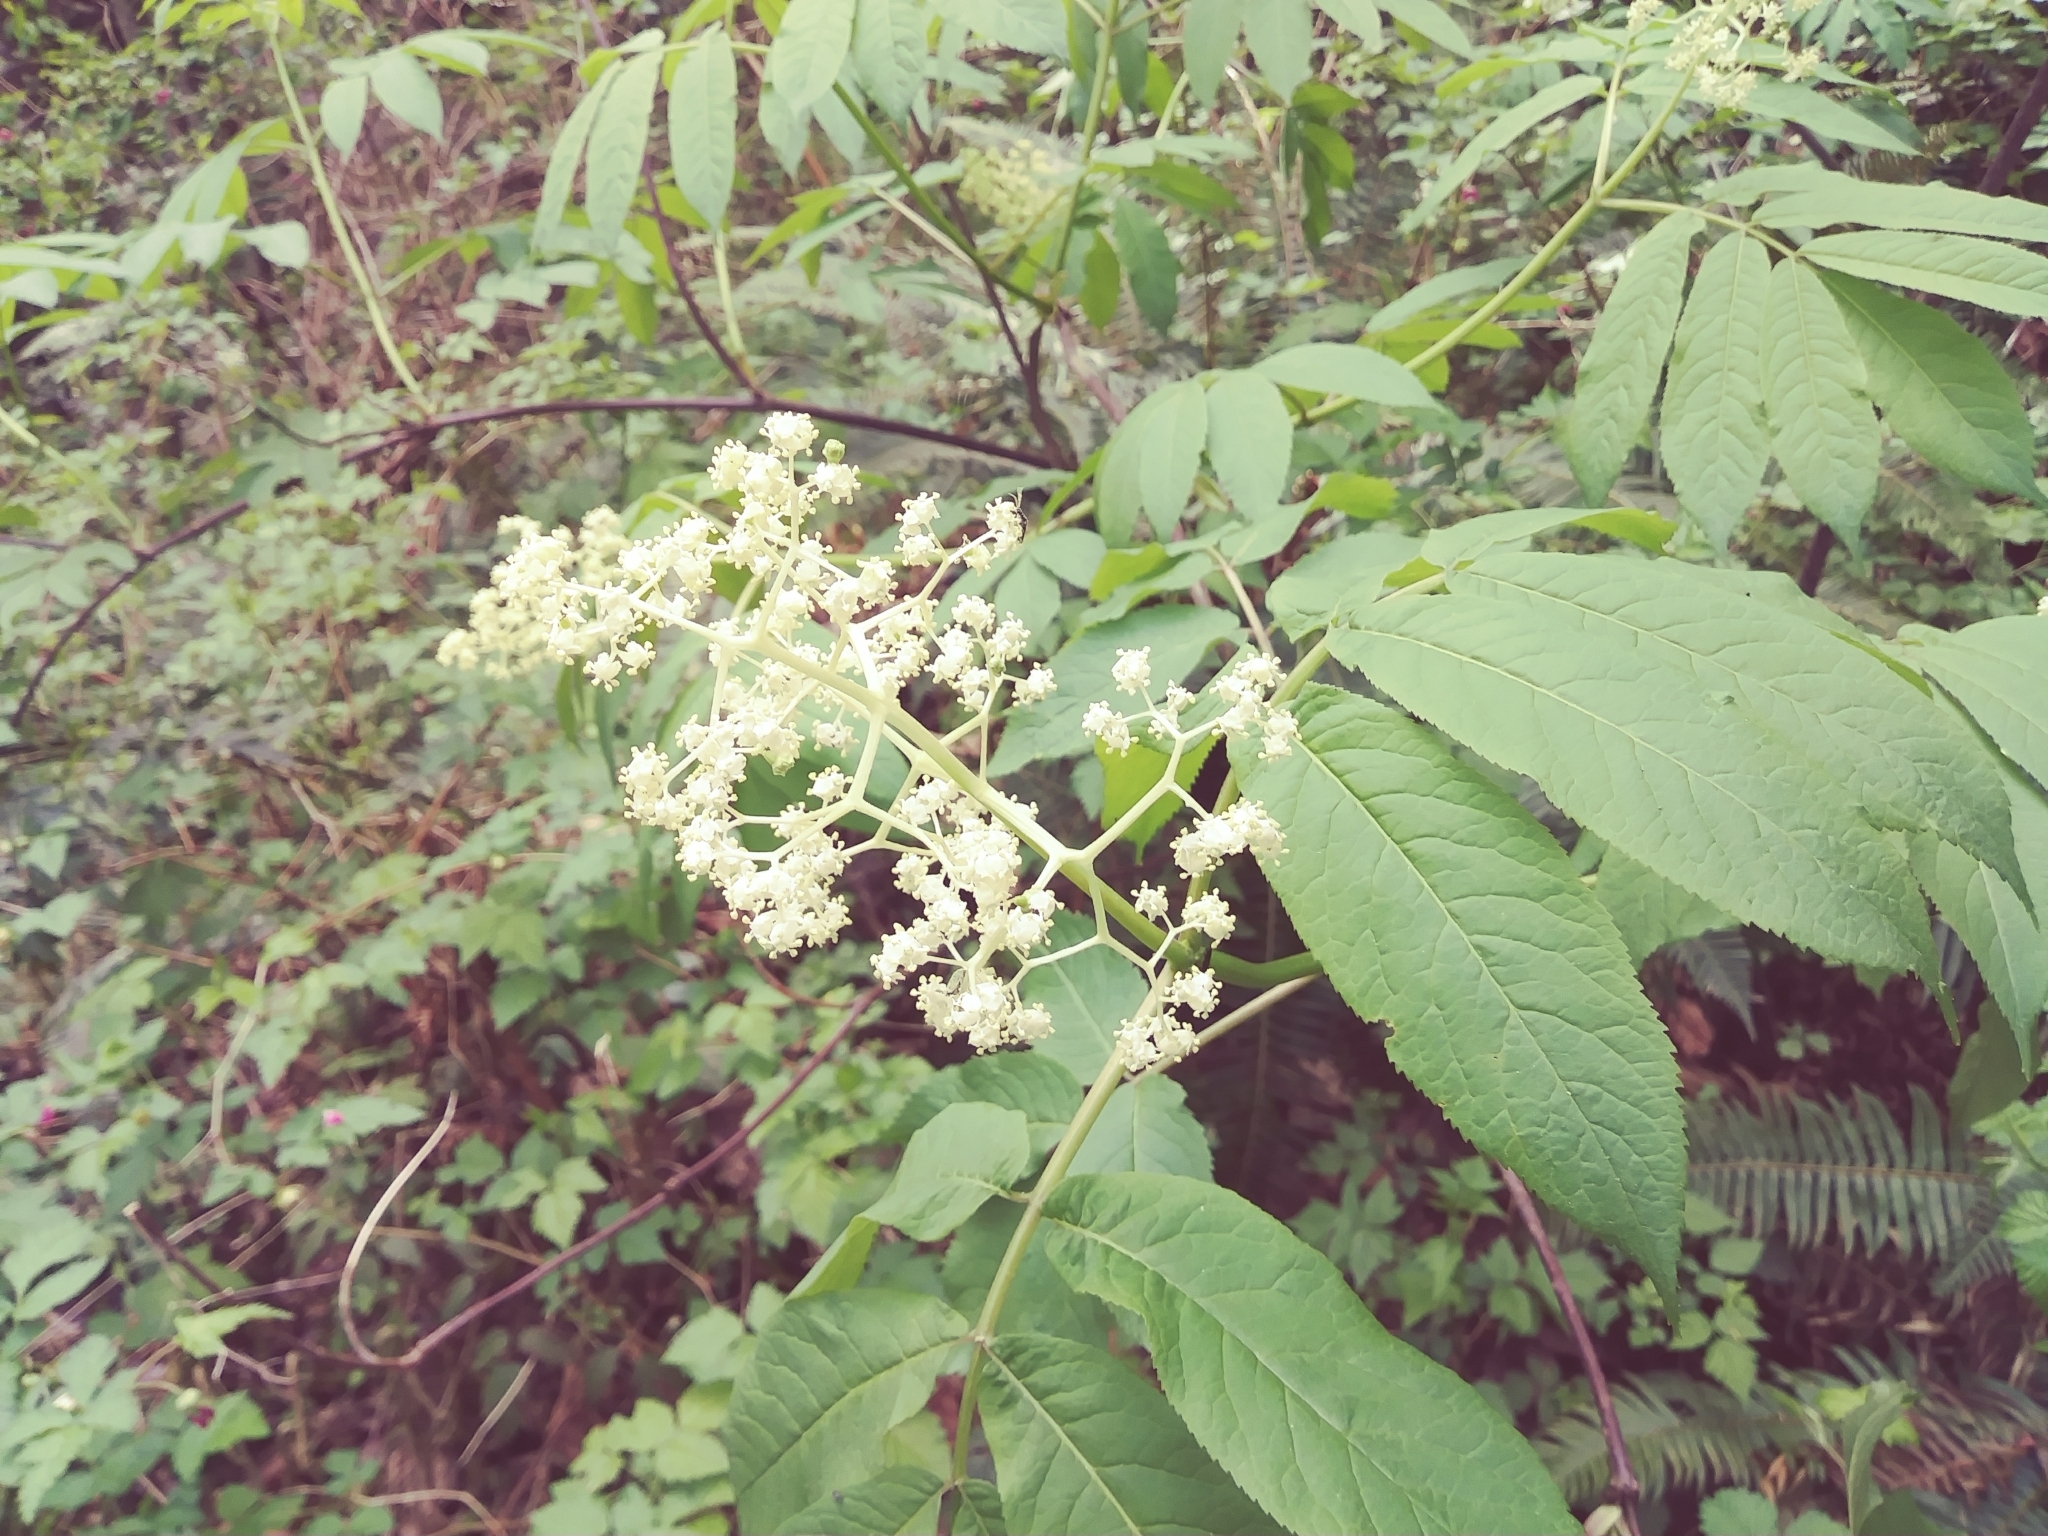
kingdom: Plantae
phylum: Tracheophyta
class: Magnoliopsida
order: Dipsacales
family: Viburnaceae
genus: Sambucus
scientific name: Sambucus racemosa
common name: Red-berried elder
